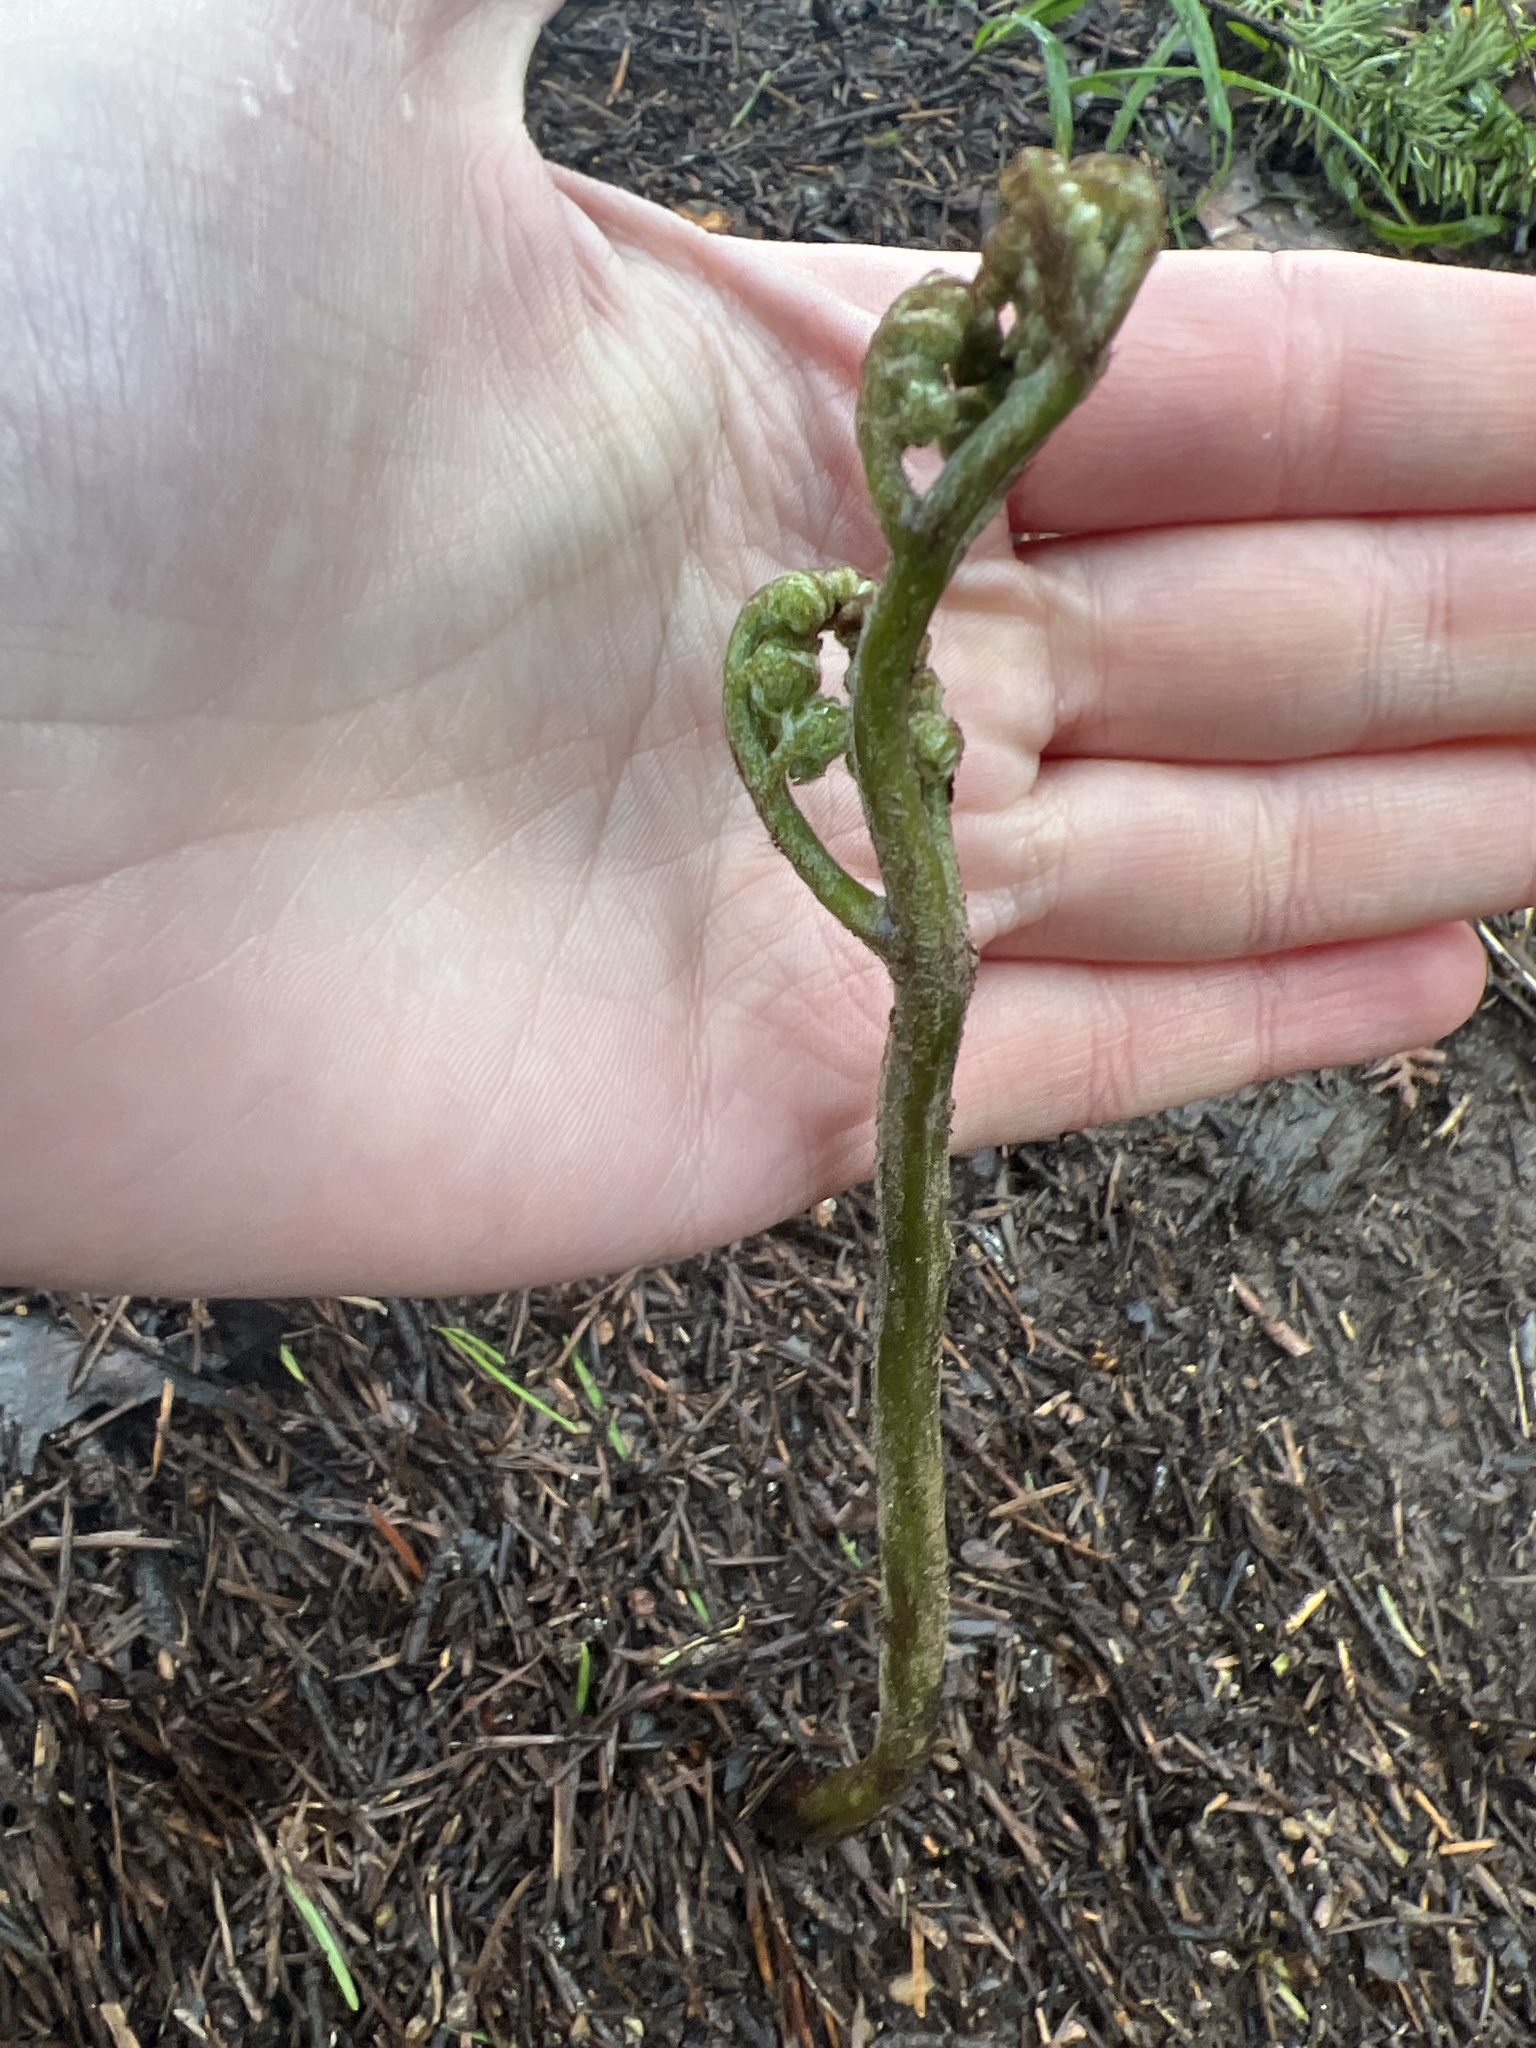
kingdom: Plantae
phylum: Tracheophyta
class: Polypodiopsida
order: Polypodiales
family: Dennstaedtiaceae
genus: Pteridium
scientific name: Pteridium aquilinum
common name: Bracken
